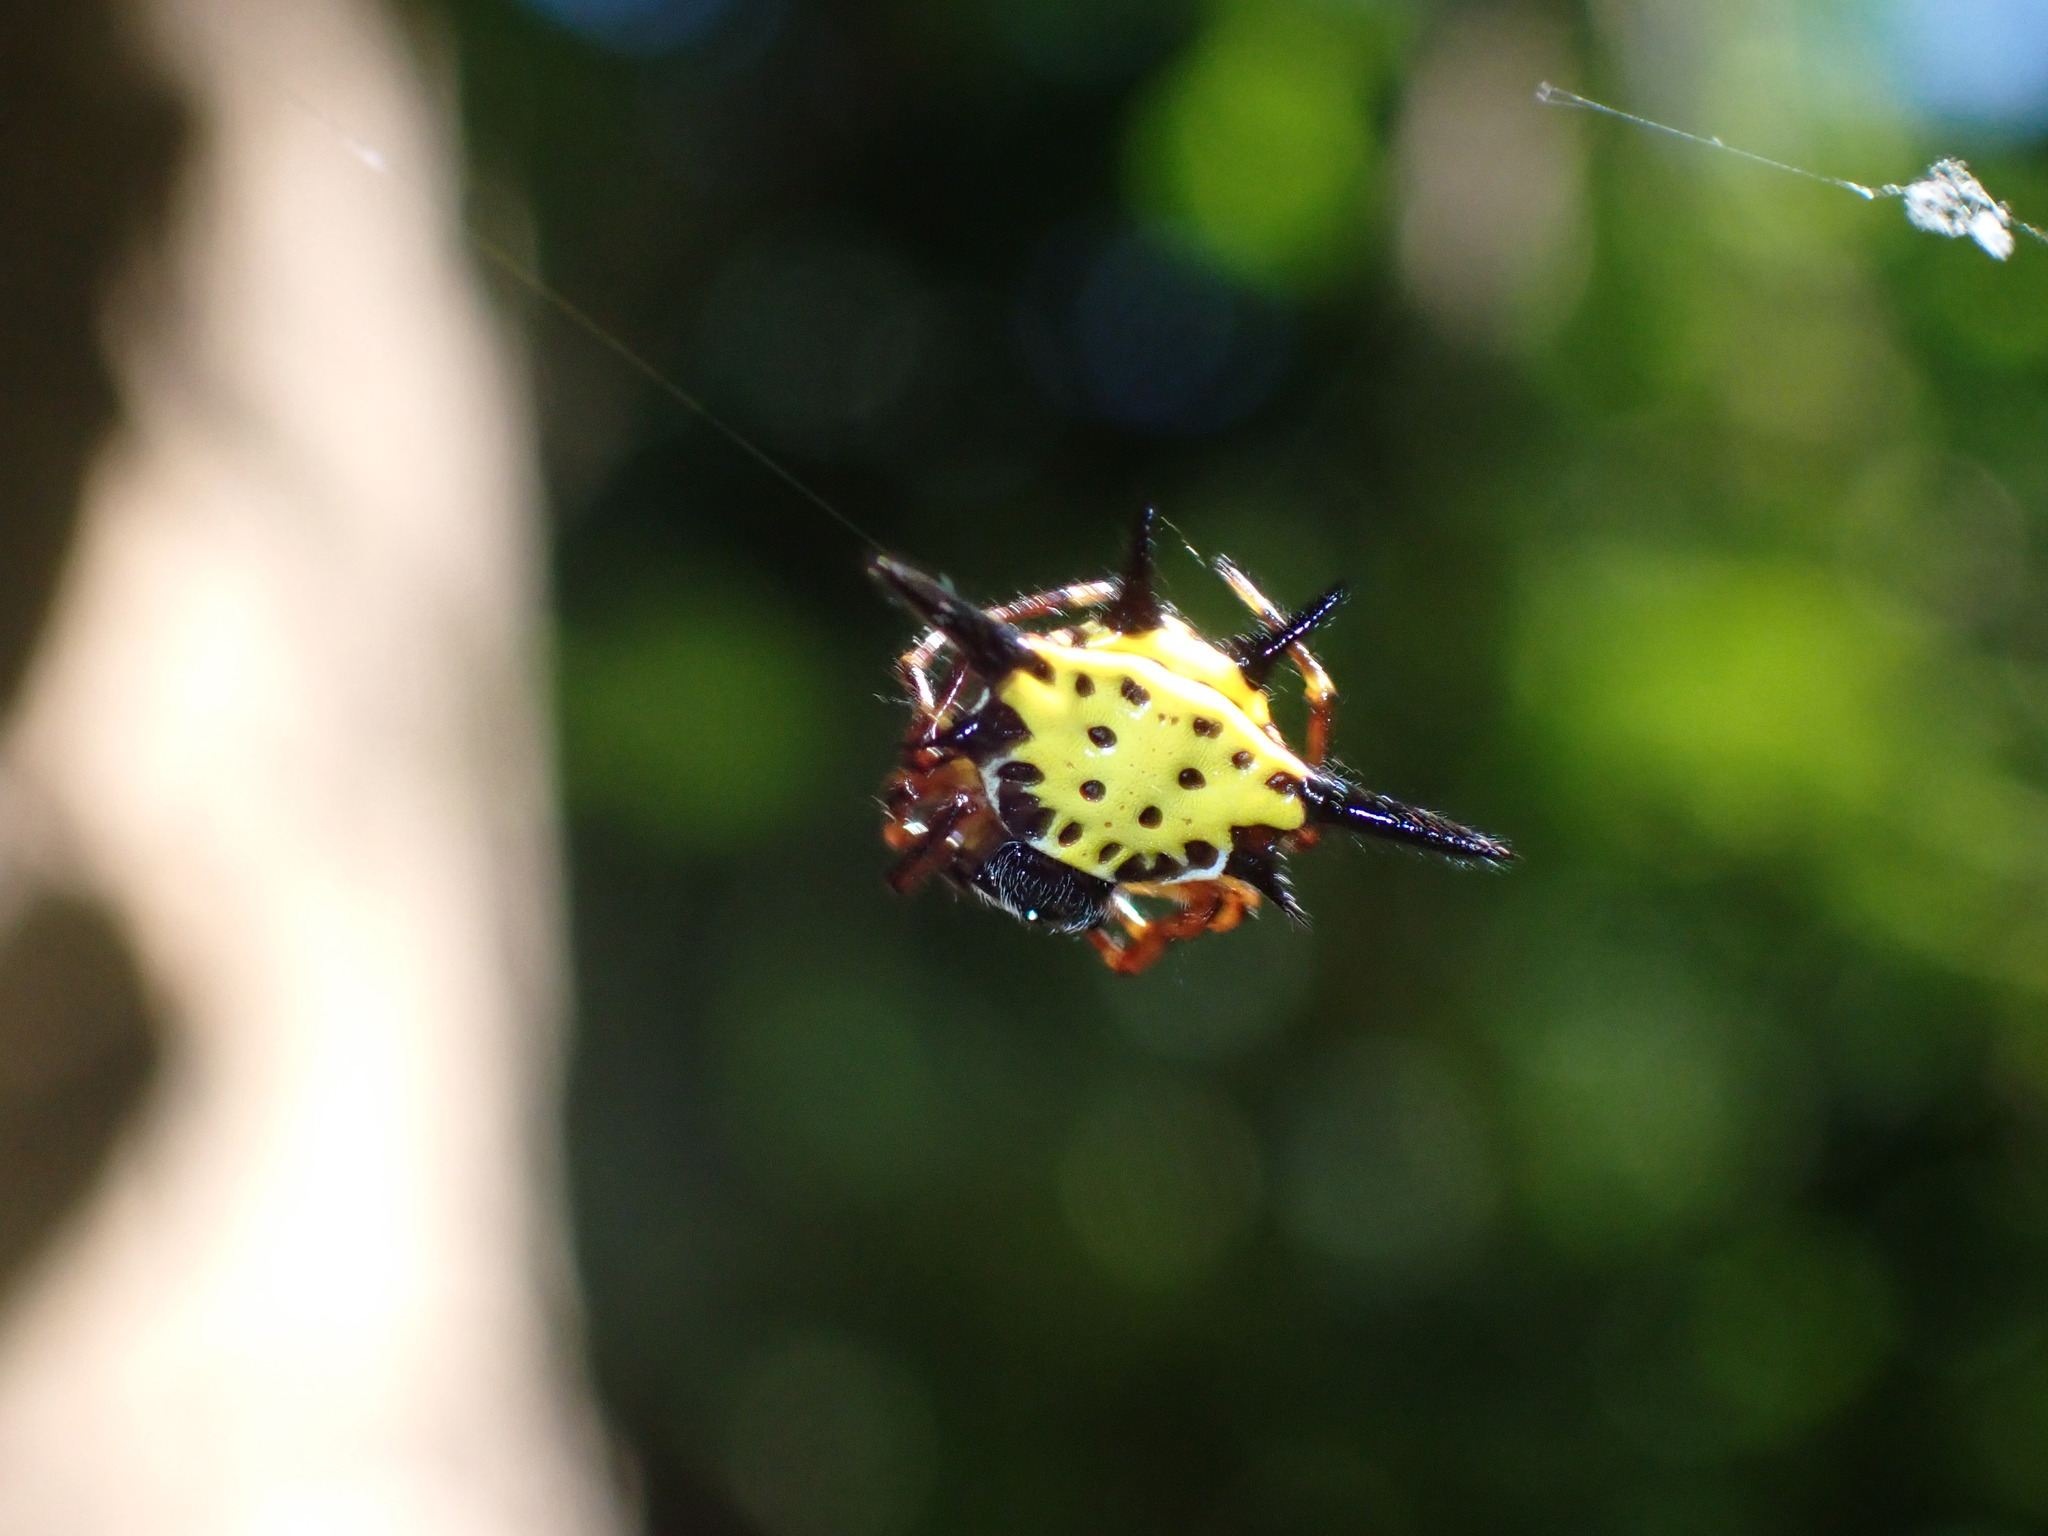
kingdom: Animalia
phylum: Arthropoda
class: Arachnida
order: Araneae
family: Araneidae
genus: Macracantha
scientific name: Macracantha hasselti
